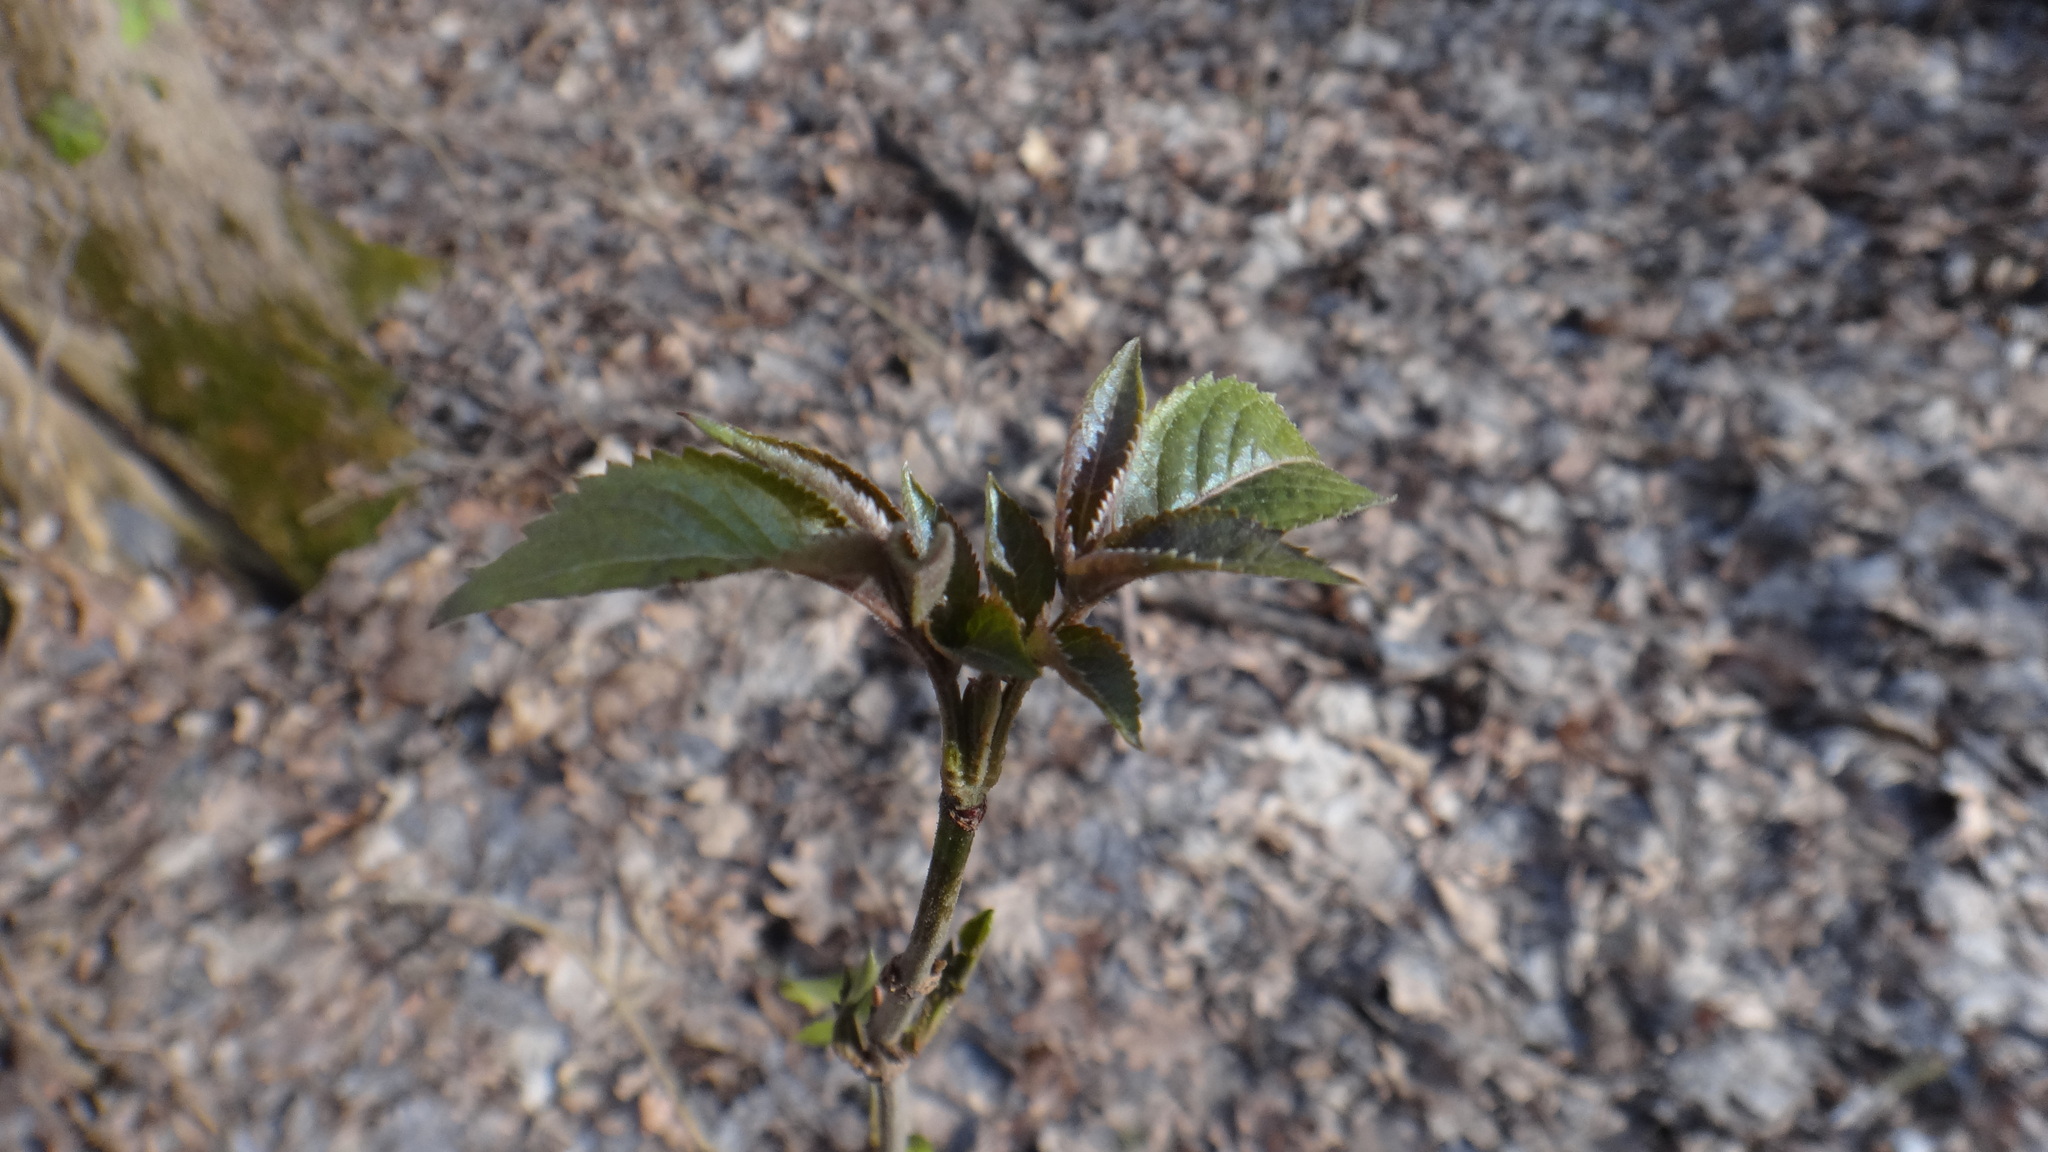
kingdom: Plantae
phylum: Tracheophyta
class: Magnoliopsida
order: Dipsacales
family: Viburnaceae
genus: Sambucus
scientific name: Sambucus nigra
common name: Elder
